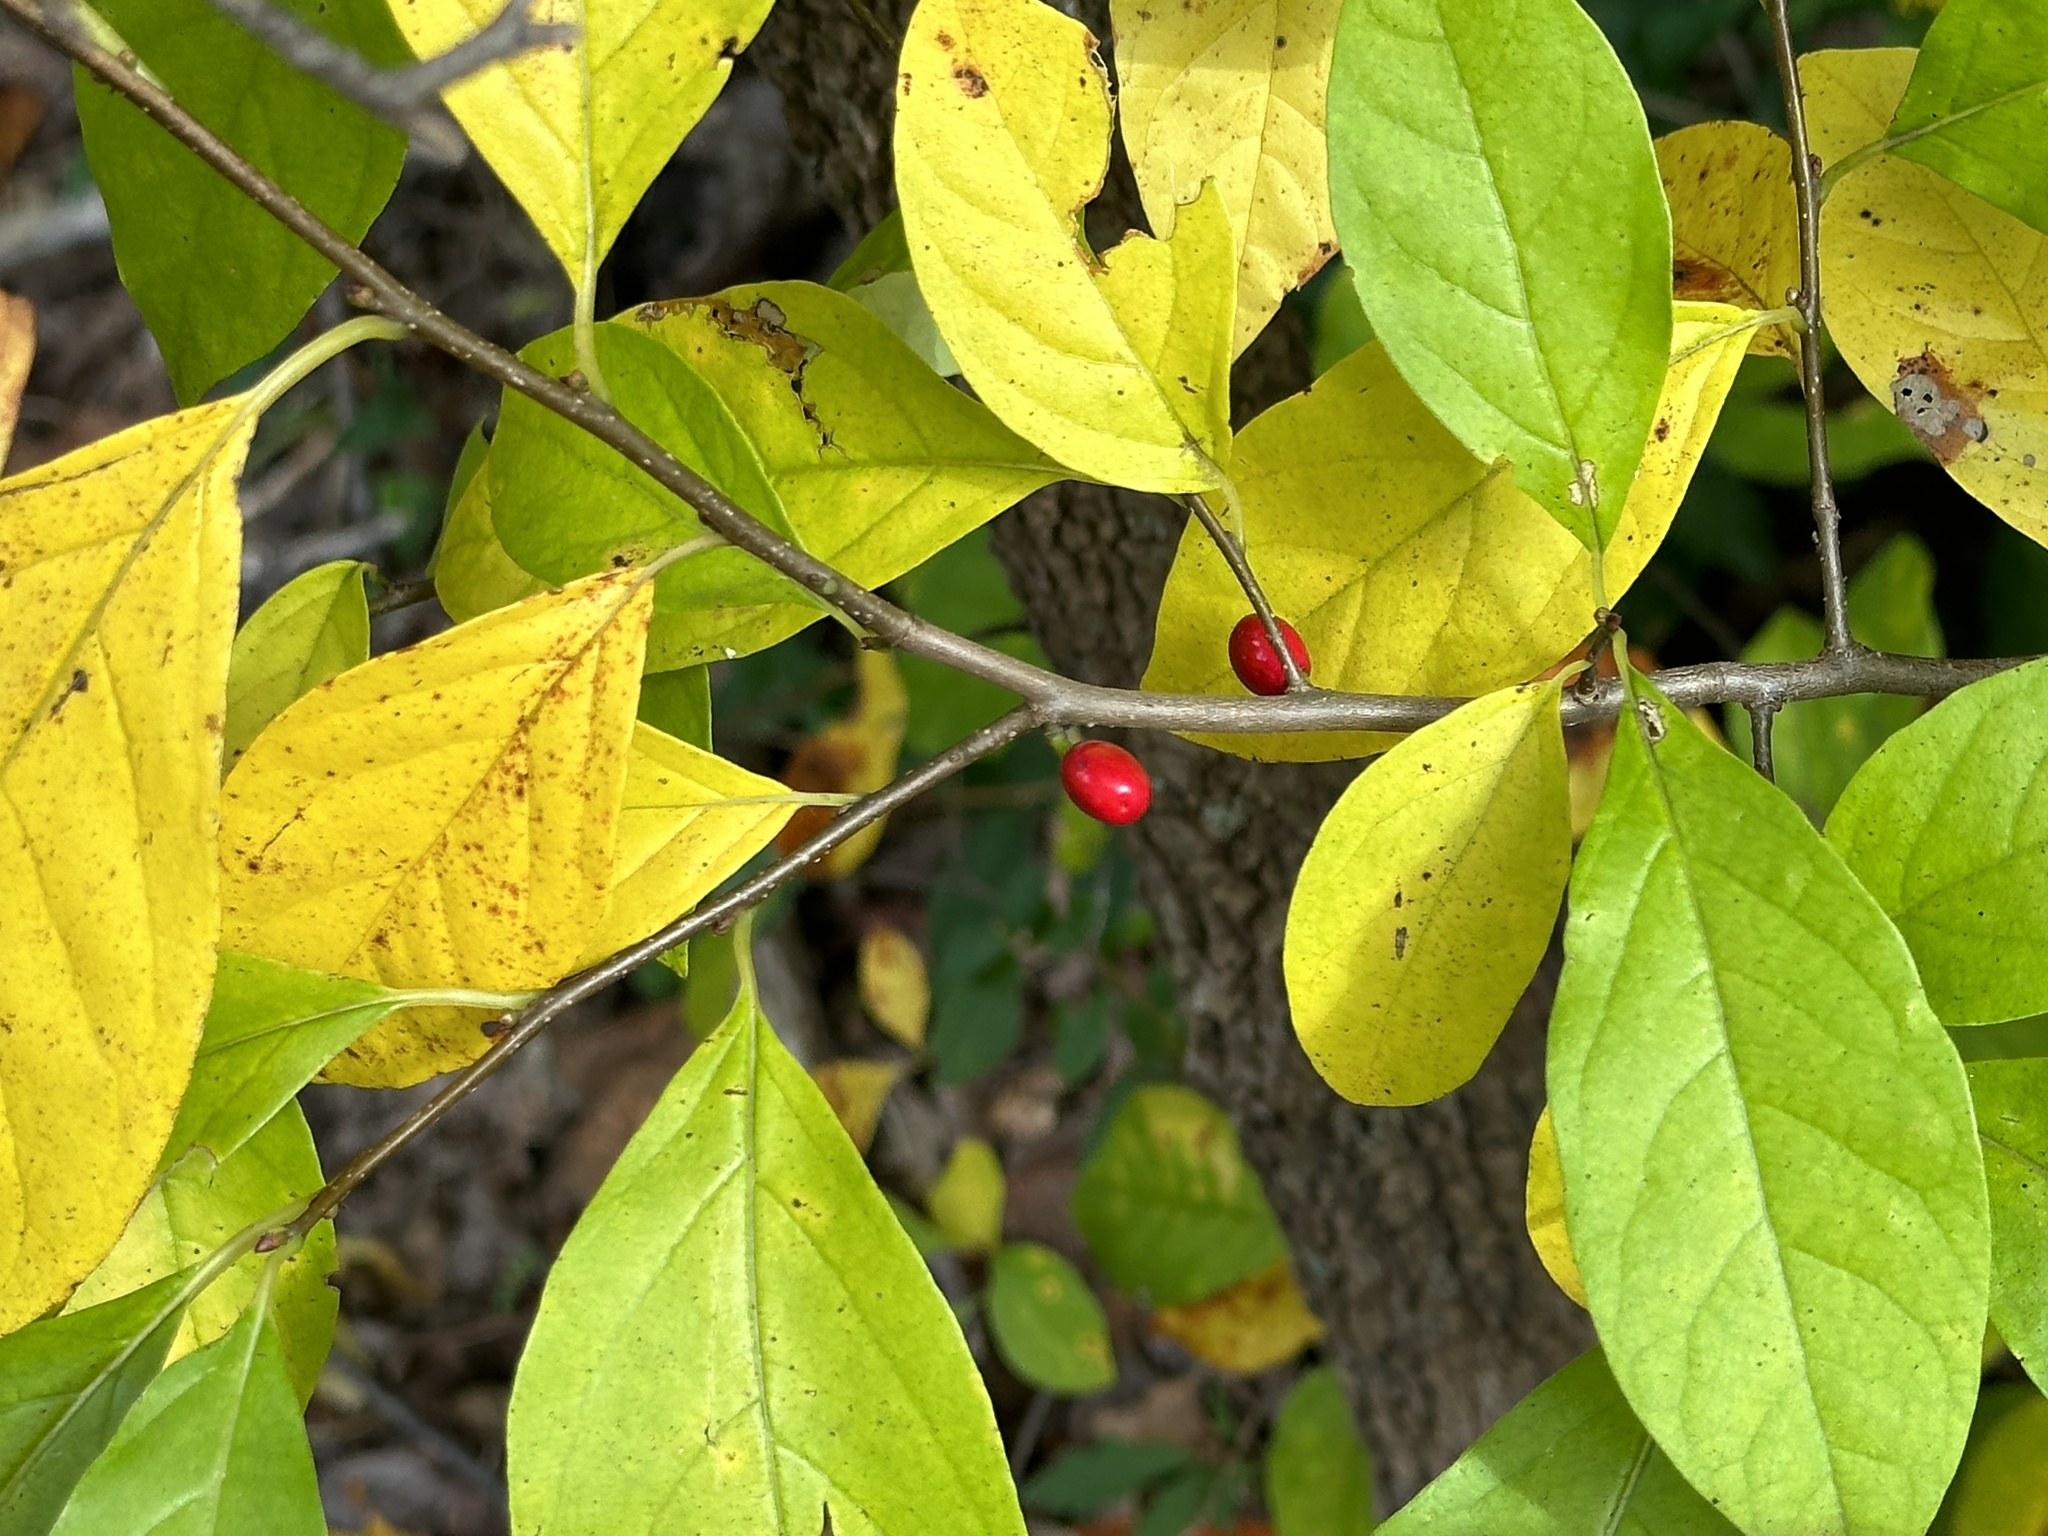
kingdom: Plantae
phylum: Tracheophyta
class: Magnoliopsida
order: Laurales
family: Lauraceae
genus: Lindera
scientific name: Lindera benzoin
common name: Spicebush
